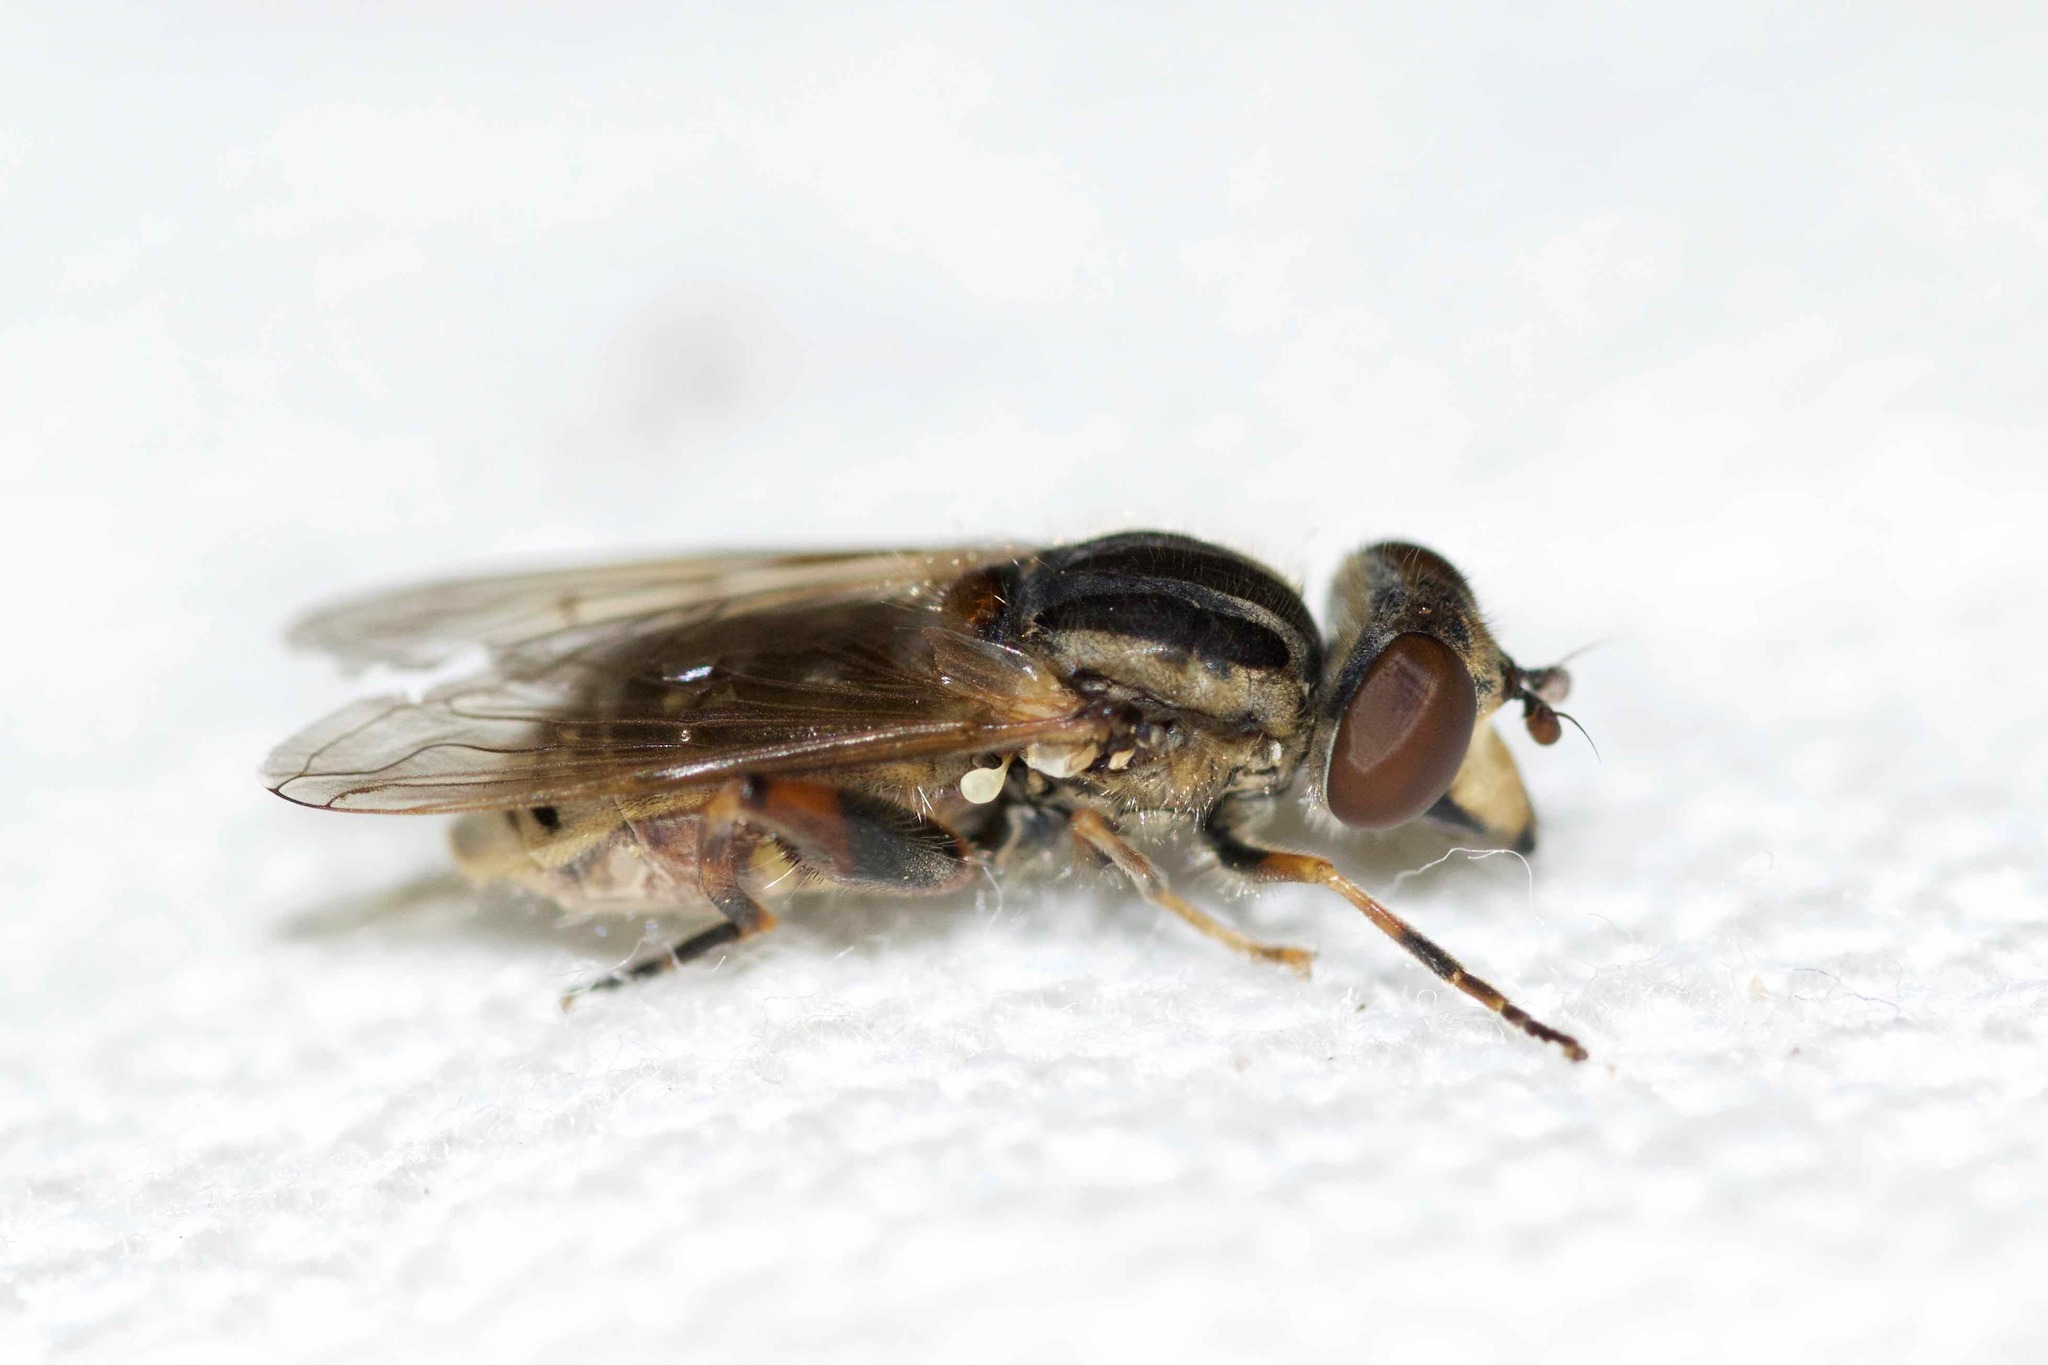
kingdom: Animalia
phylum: Arthropoda
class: Insecta
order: Diptera
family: Syrphidae
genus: Eurimyia
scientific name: Eurimyia stipatus
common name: Long-nosed swamp fly
